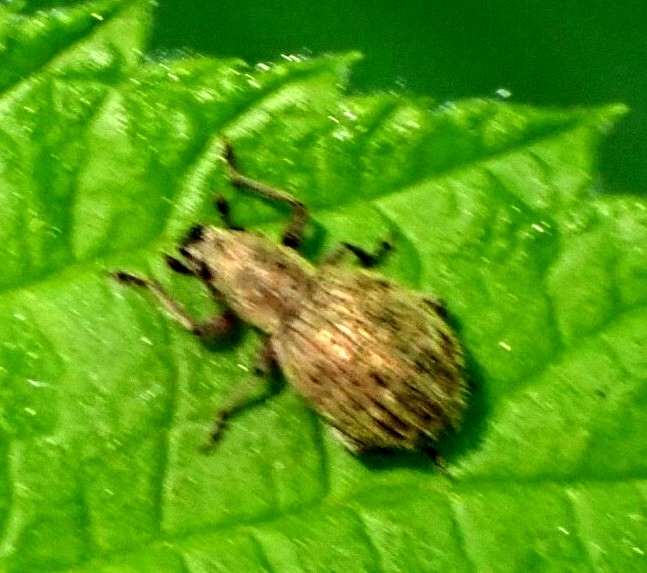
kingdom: Animalia
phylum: Arthropoda
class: Insecta
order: Coleoptera
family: Curculionidae
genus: Sciaphilus
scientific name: Sciaphilus asperatus
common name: Weevil
